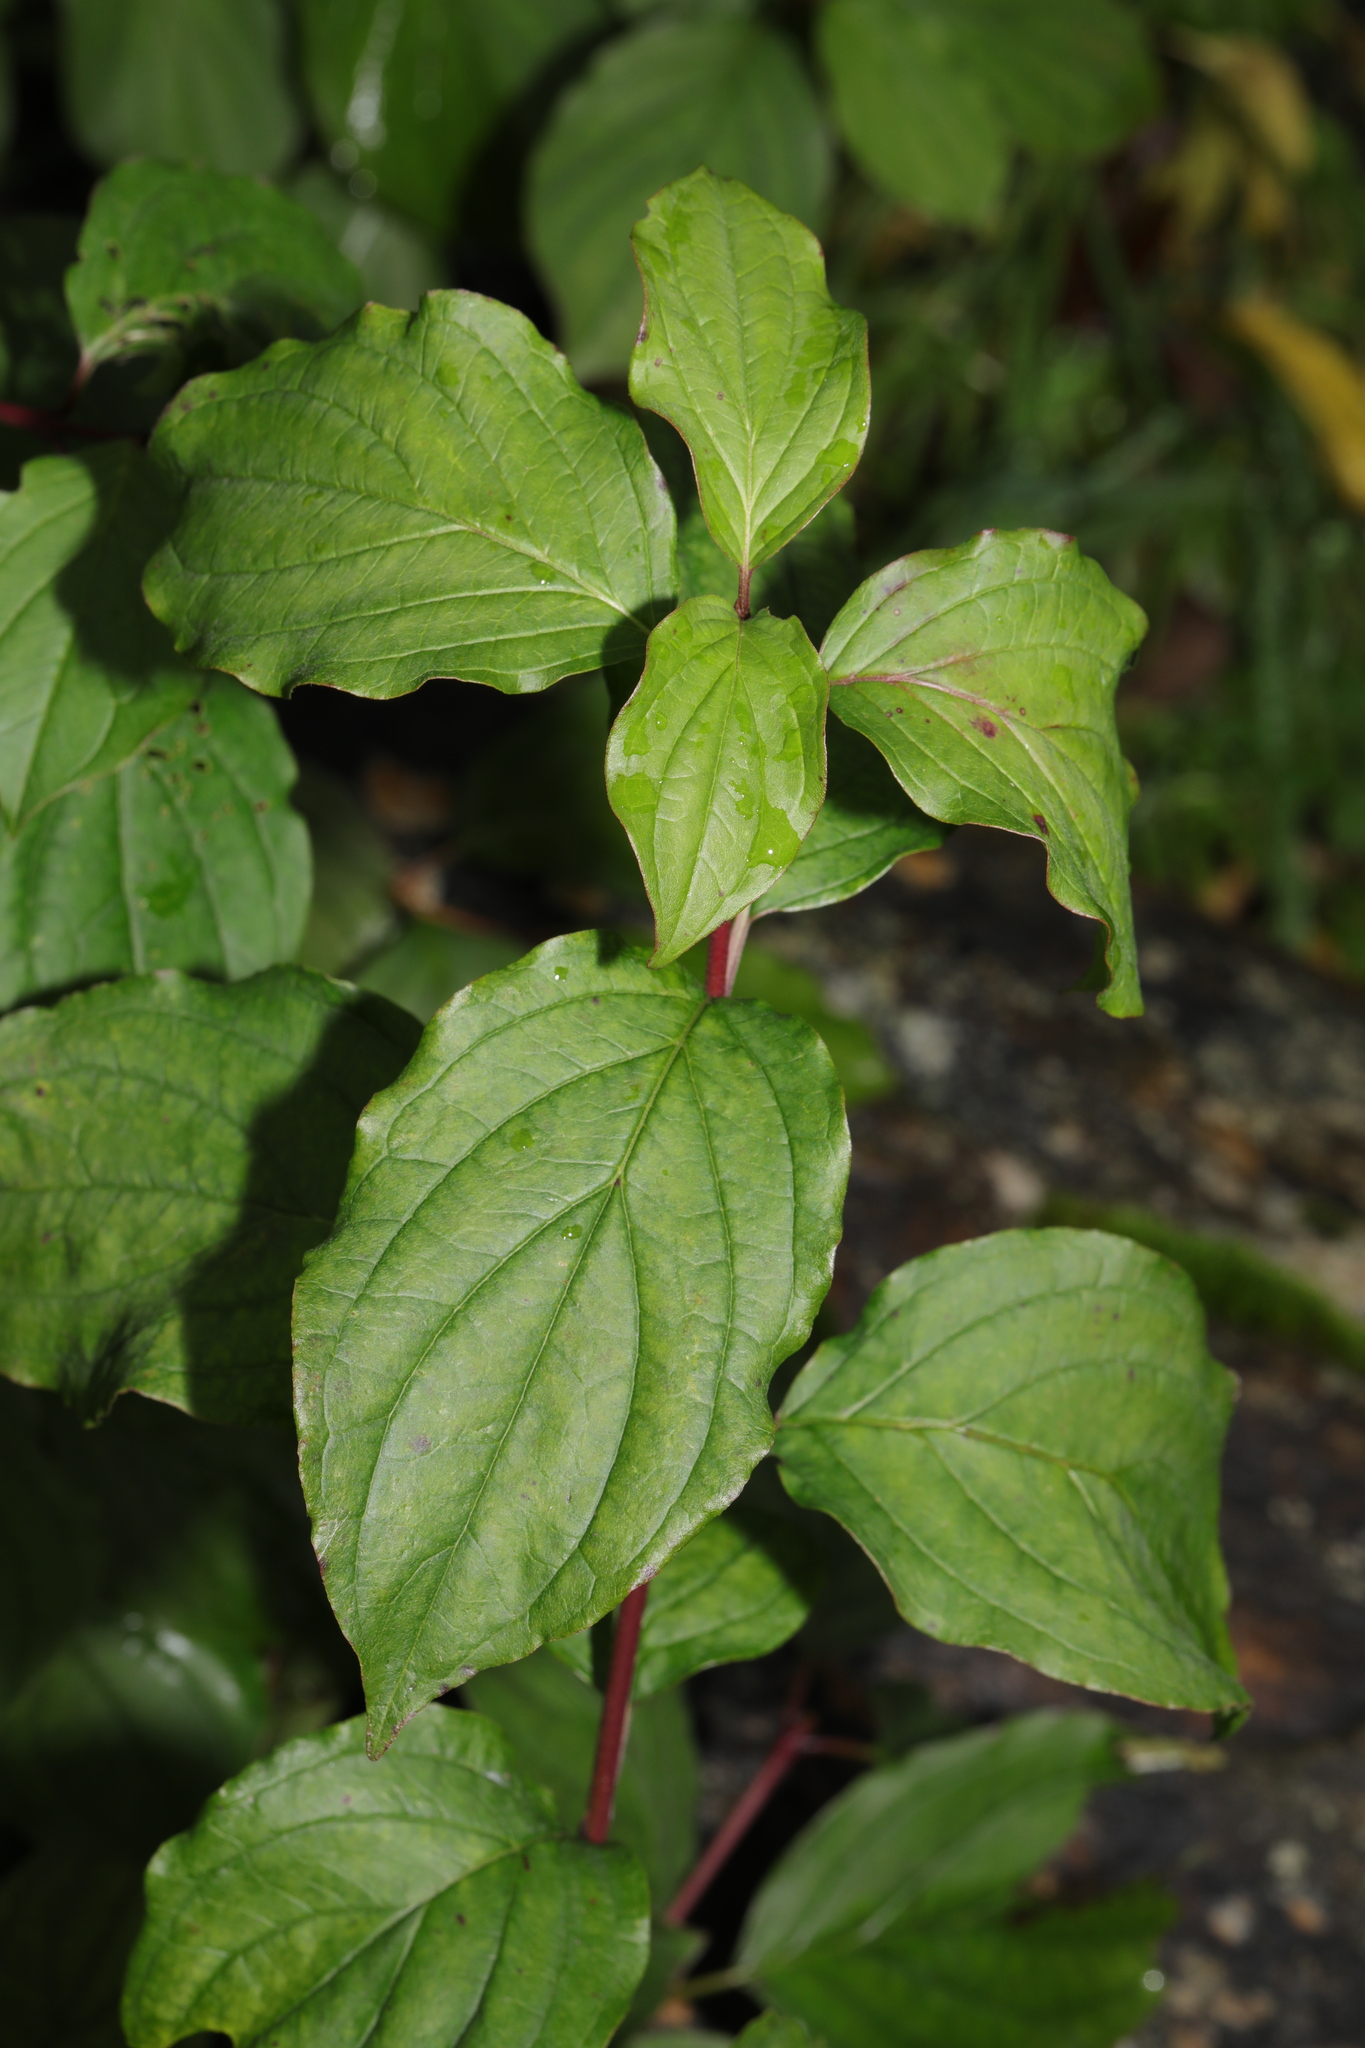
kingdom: Plantae
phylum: Tracheophyta
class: Magnoliopsida
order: Cornales
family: Cornaceae
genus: Cornus
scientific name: Cornus sanguinea
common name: Dogwood
